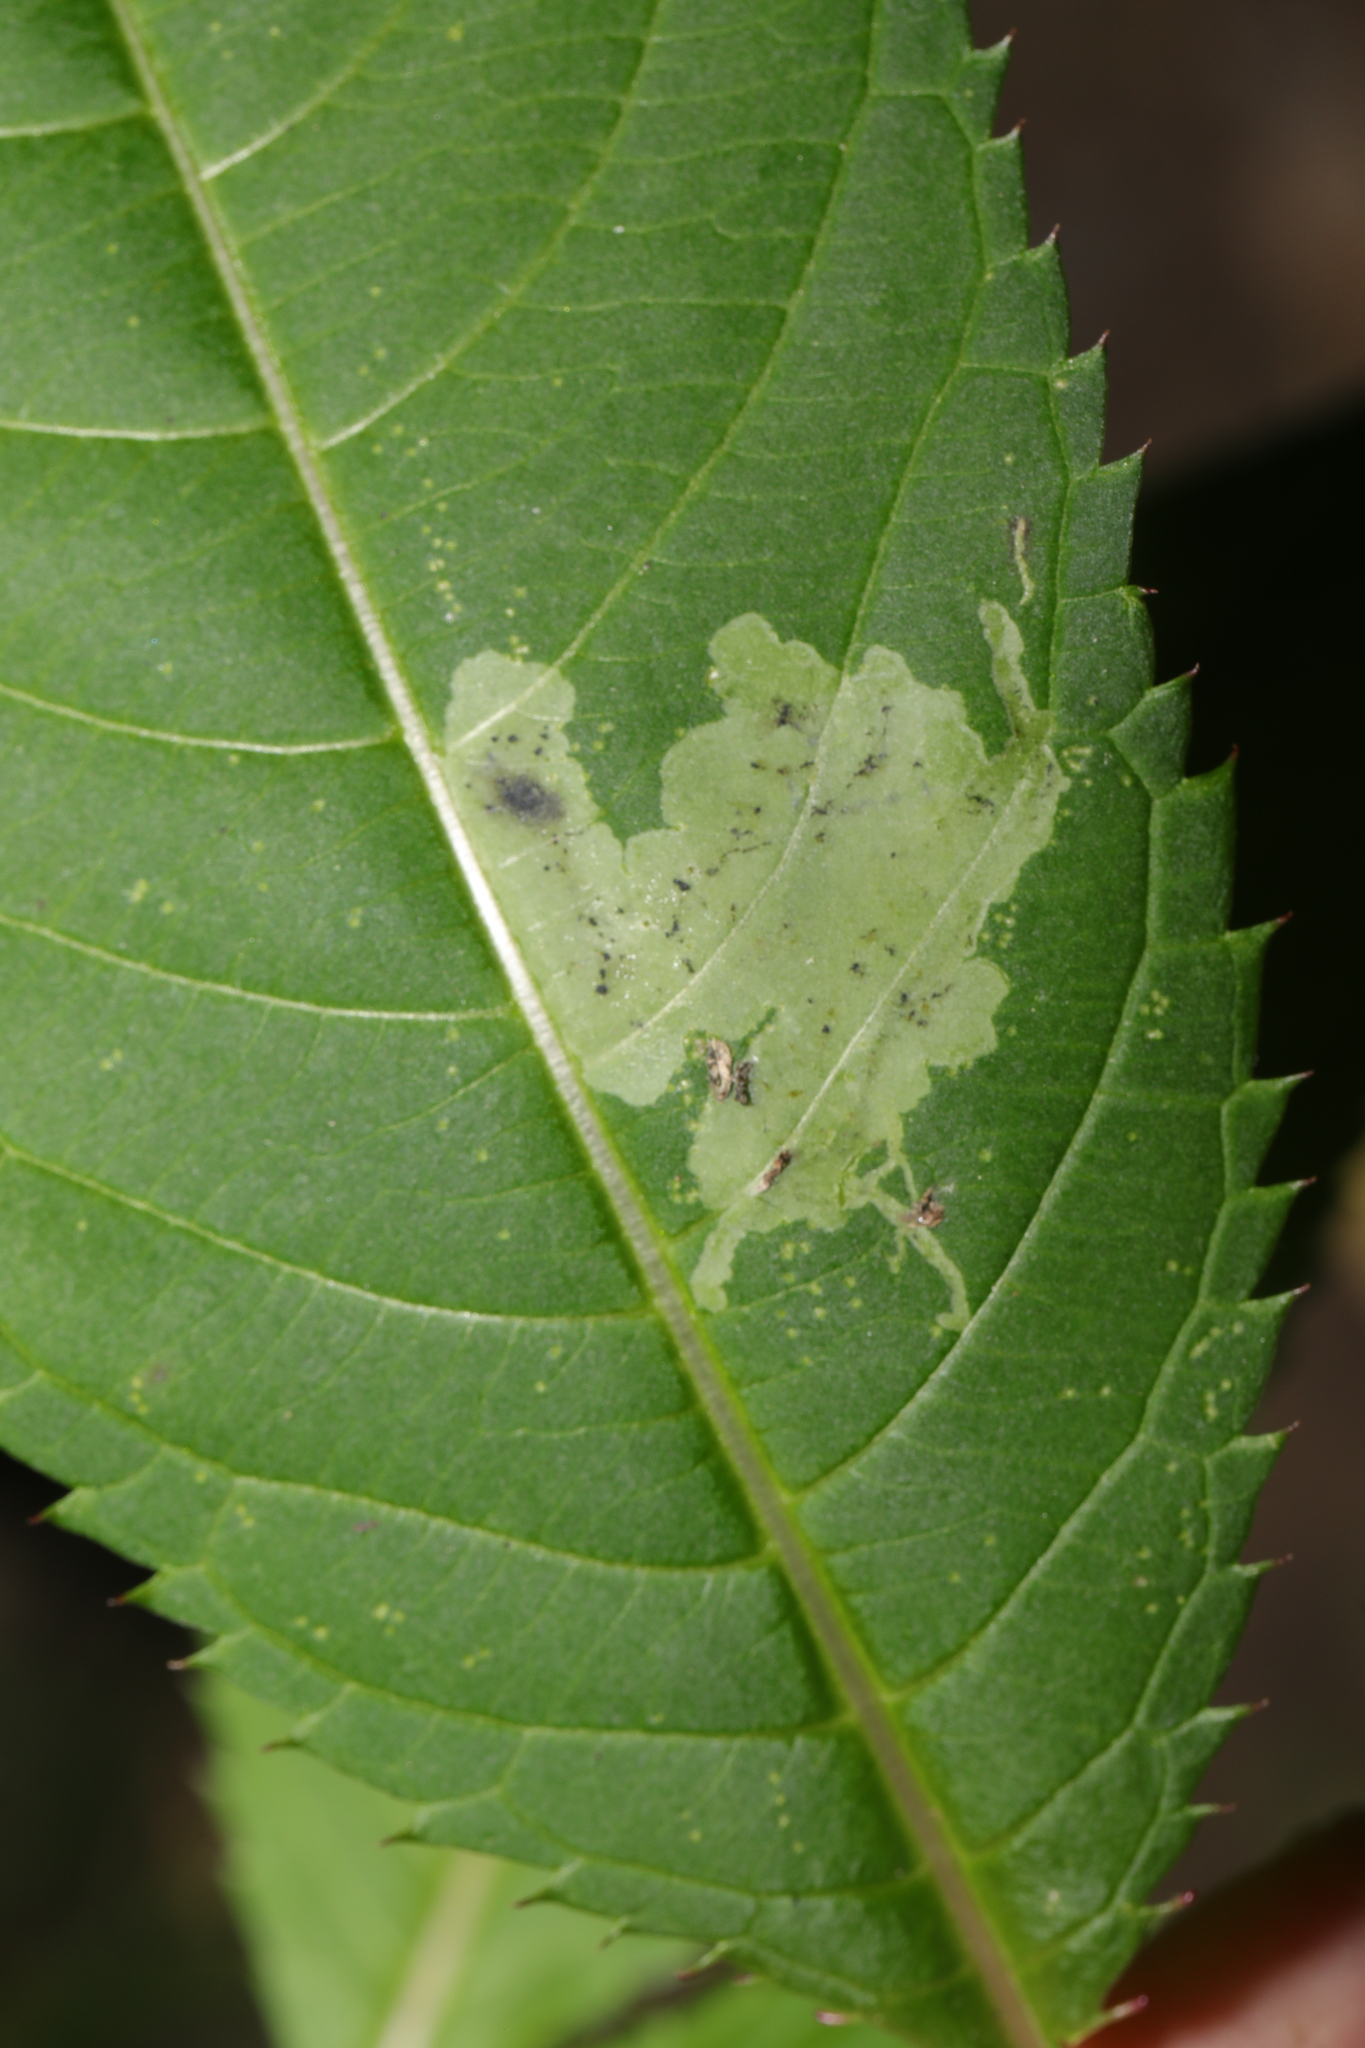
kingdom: Animalia
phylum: Arthropoda
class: Insecta
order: Diptera
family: Agromyzidae
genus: Phytoliriomyza
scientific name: Phytoliriomyza melampyga
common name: Jewelweed leaf-miner fly
